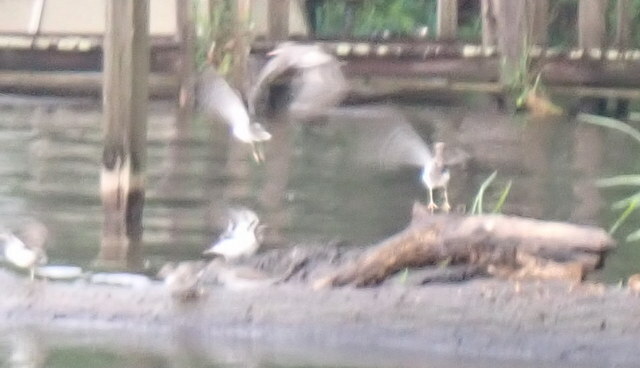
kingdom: Animalia
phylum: Chordata
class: Aves
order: Charadriiformes
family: Scolopacidae
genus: Actitis
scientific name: Actitis macularius
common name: Spotted sandpiper
